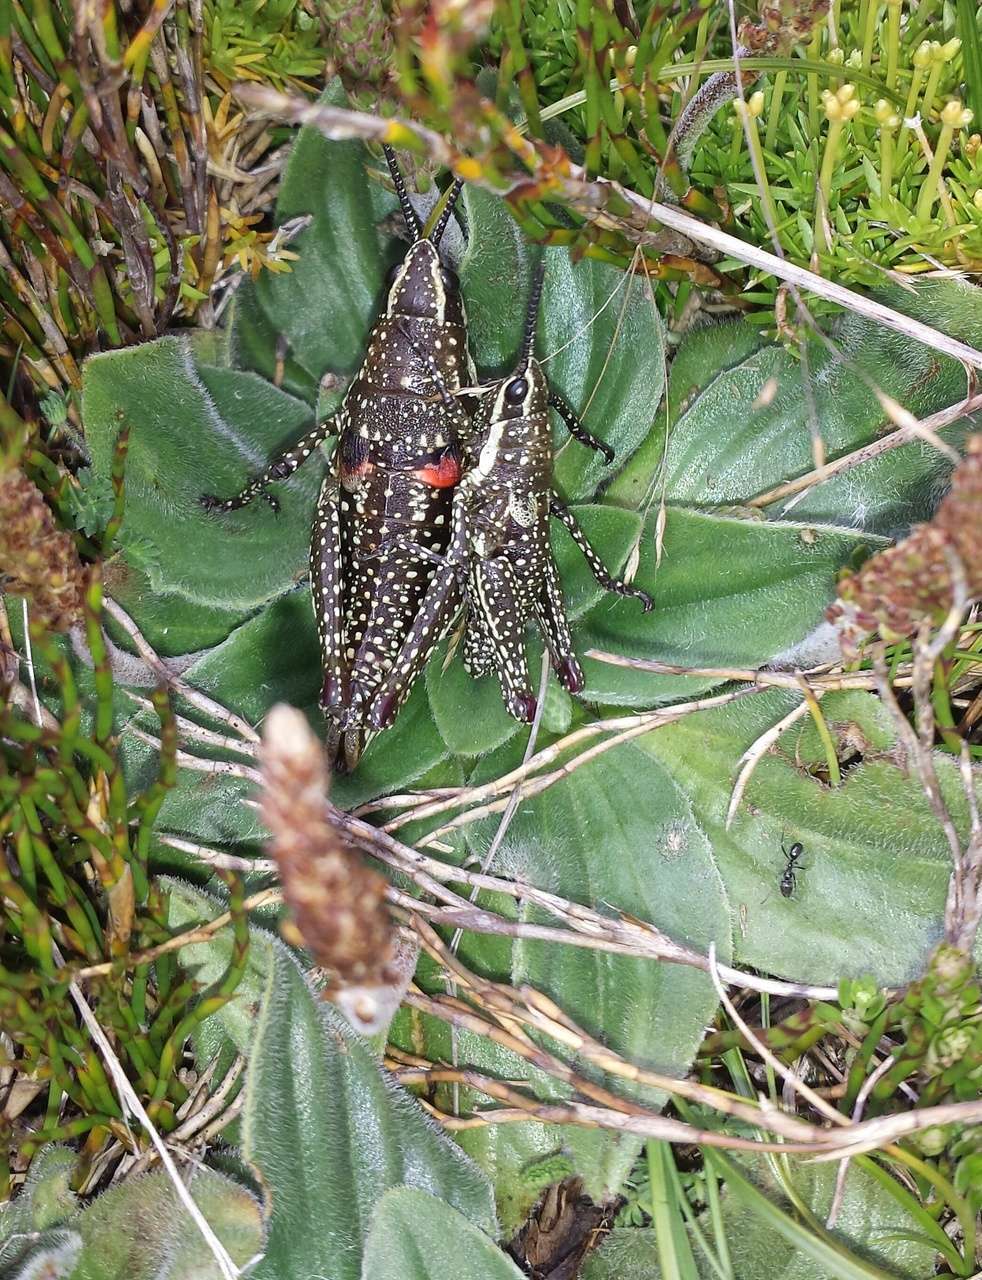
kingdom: Animalia
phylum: Arthropoda
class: Insecta
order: Orthoptera
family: Pyrgomorphidae
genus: Monistria
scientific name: Monistria concinna
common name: Southern pyrgomorph
